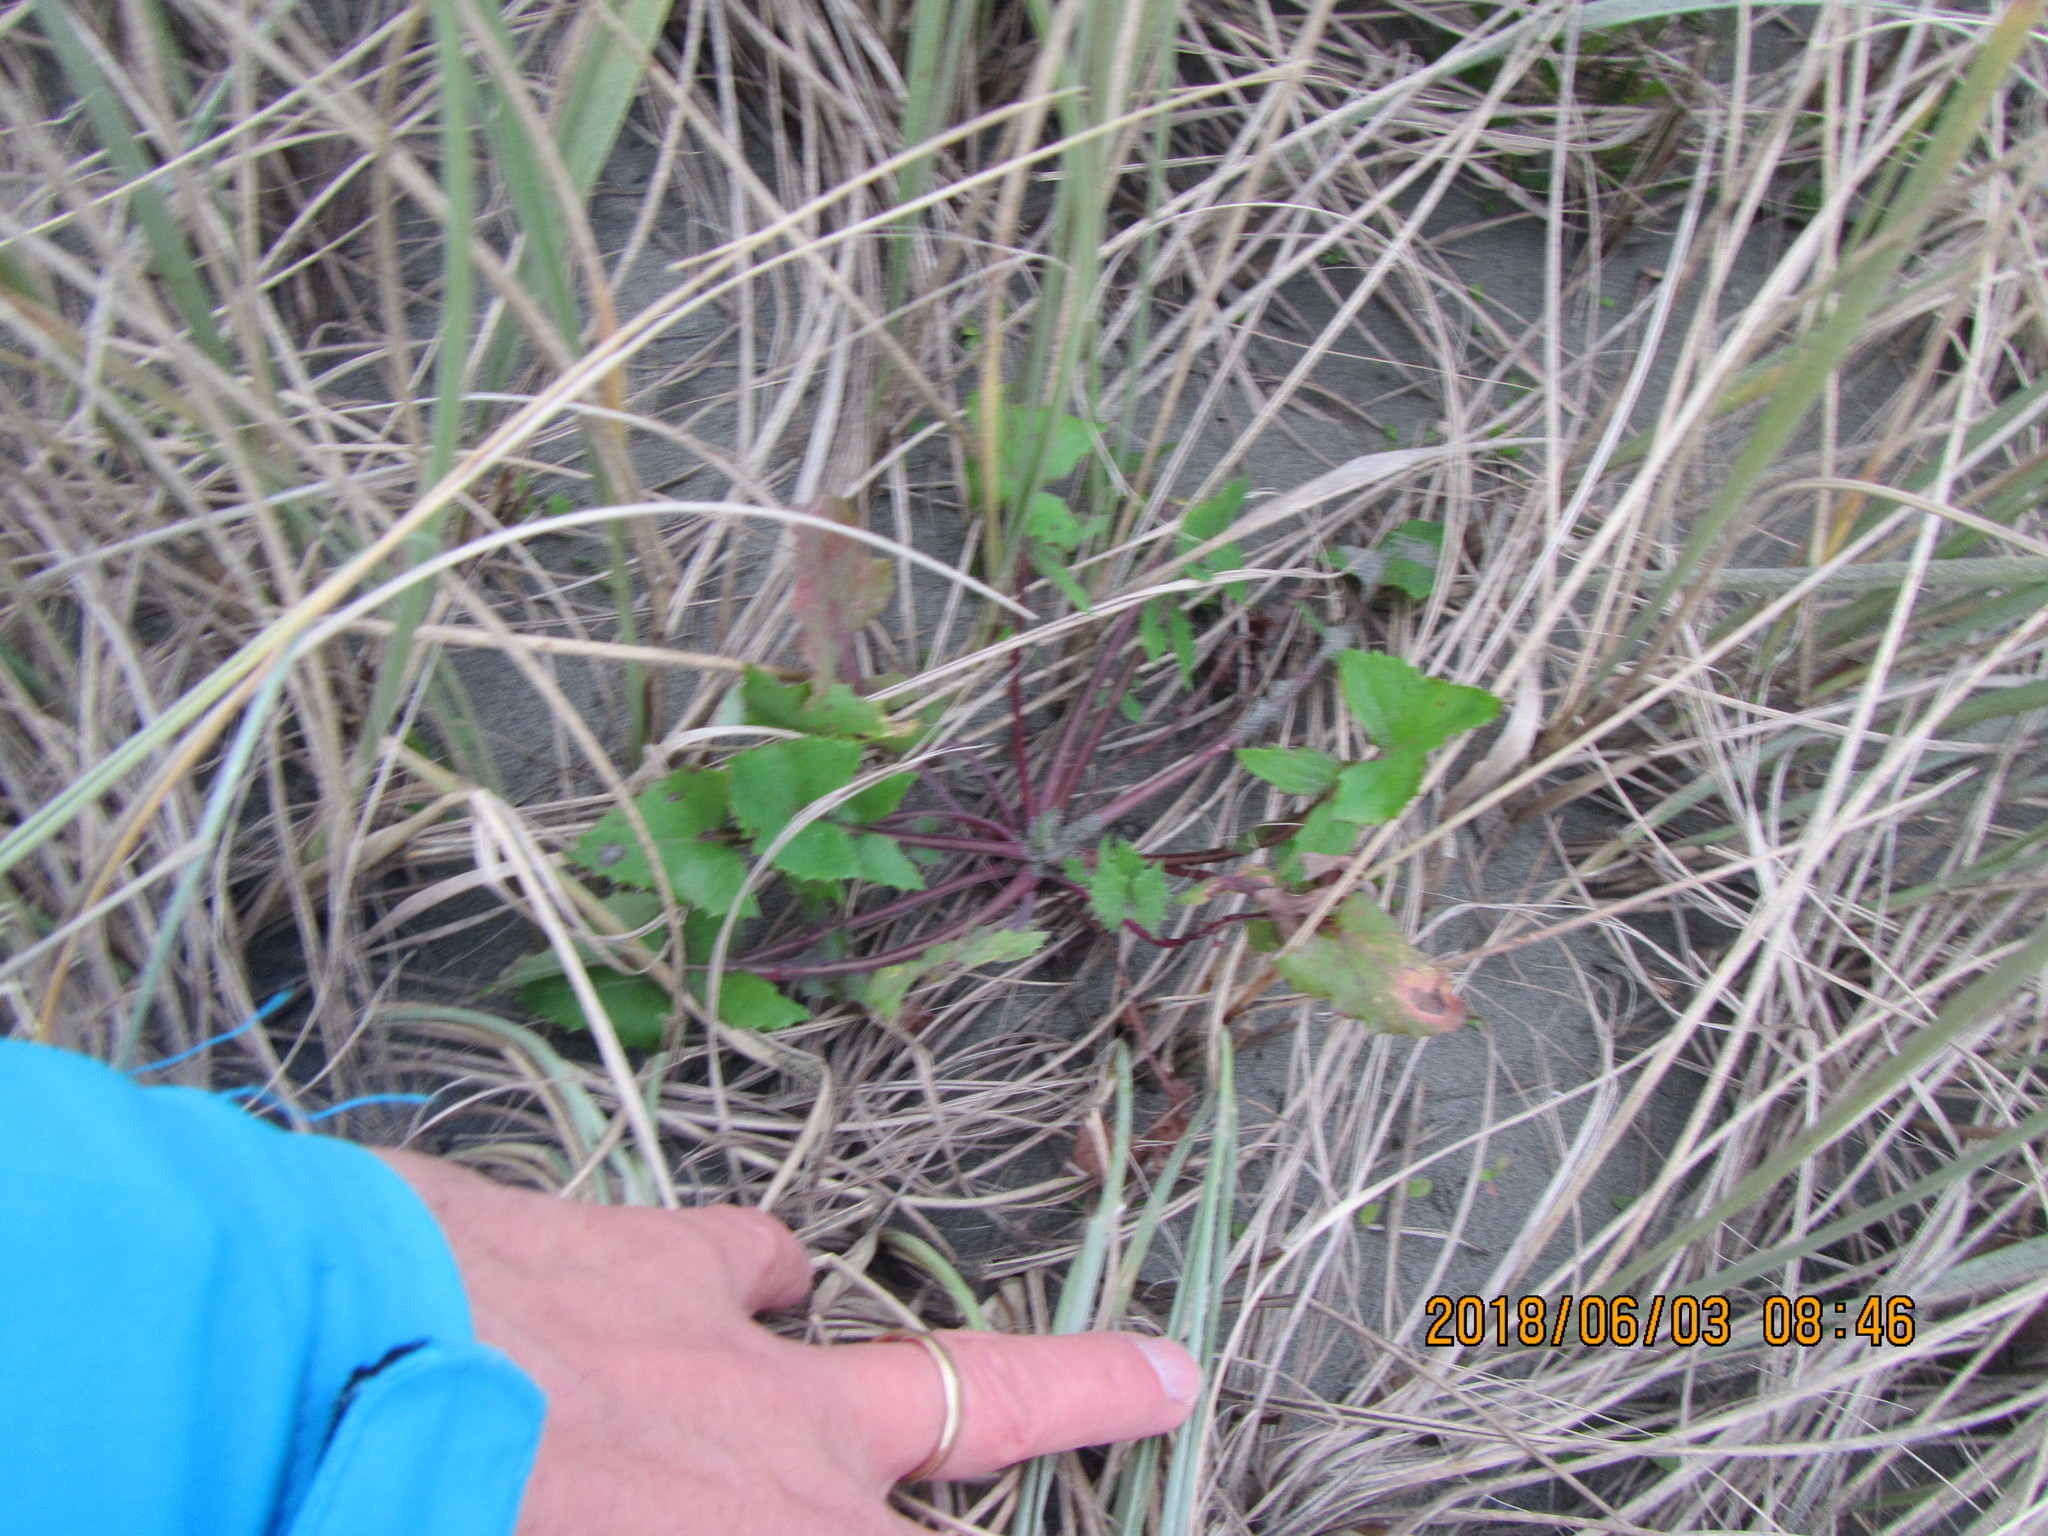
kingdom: Plantae
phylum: Tracheophyta
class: Magnoliopsida
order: Asterales
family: Asteraceae
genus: Sonchus
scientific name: Sonchus oleraceus
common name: Common sowthistle
